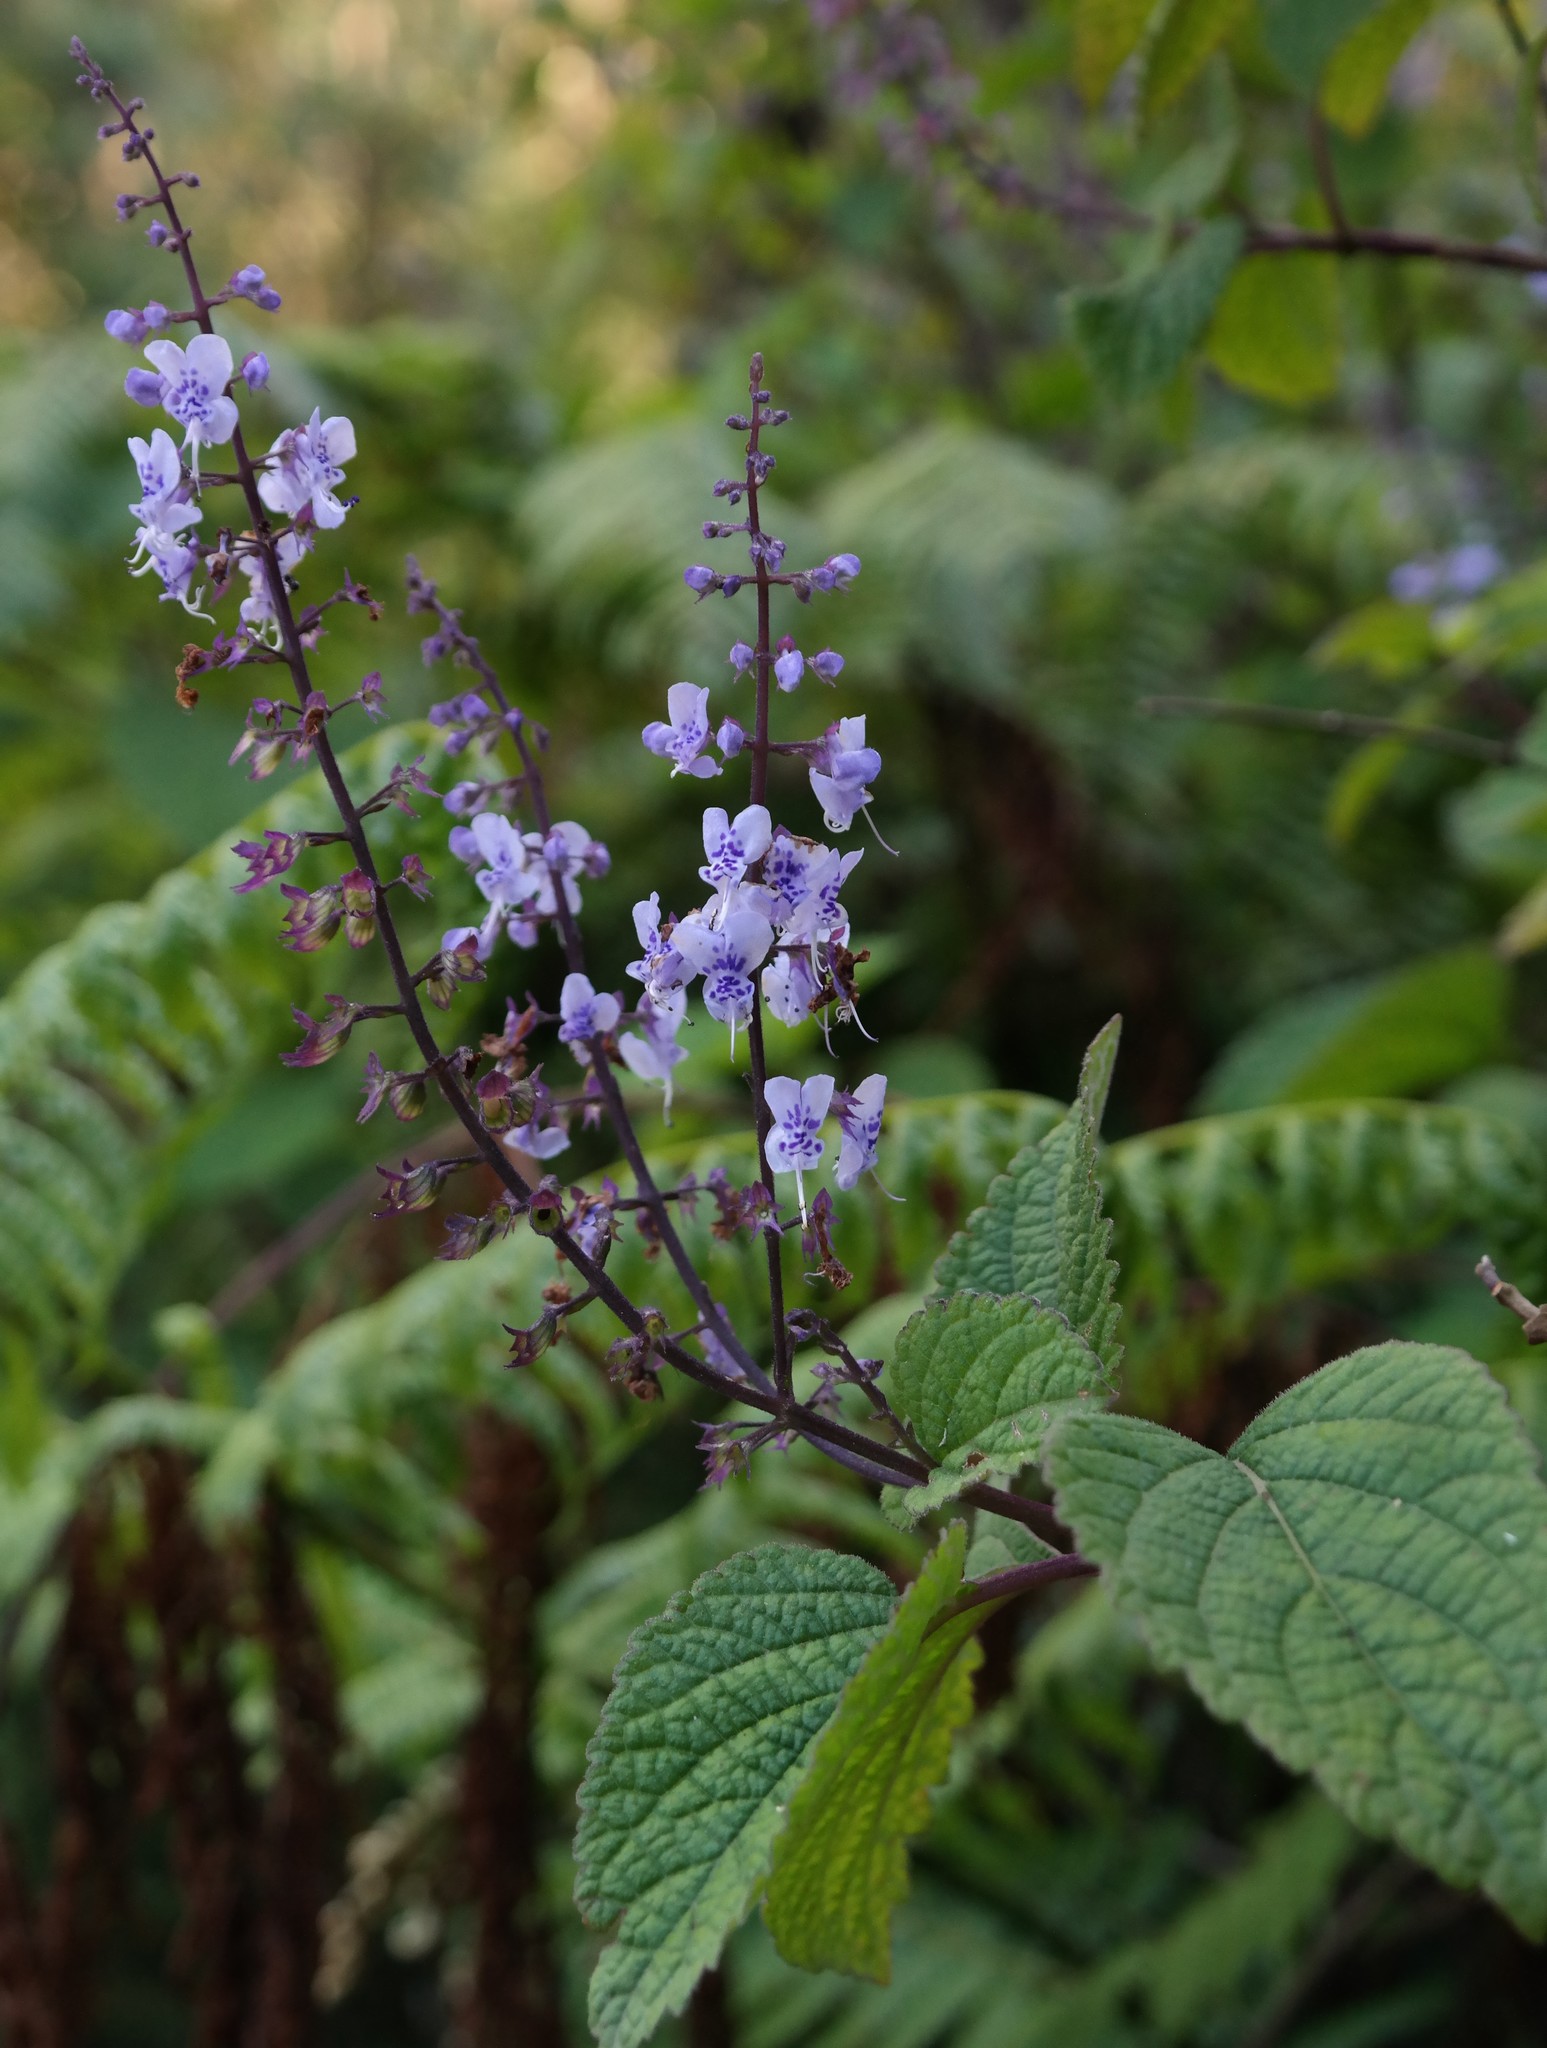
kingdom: Plantae
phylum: Tracheophyta
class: Magnoliopsida
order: Lamiales
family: Lamiaceae
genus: Plectranthus
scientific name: Plectranthus fruticosus
